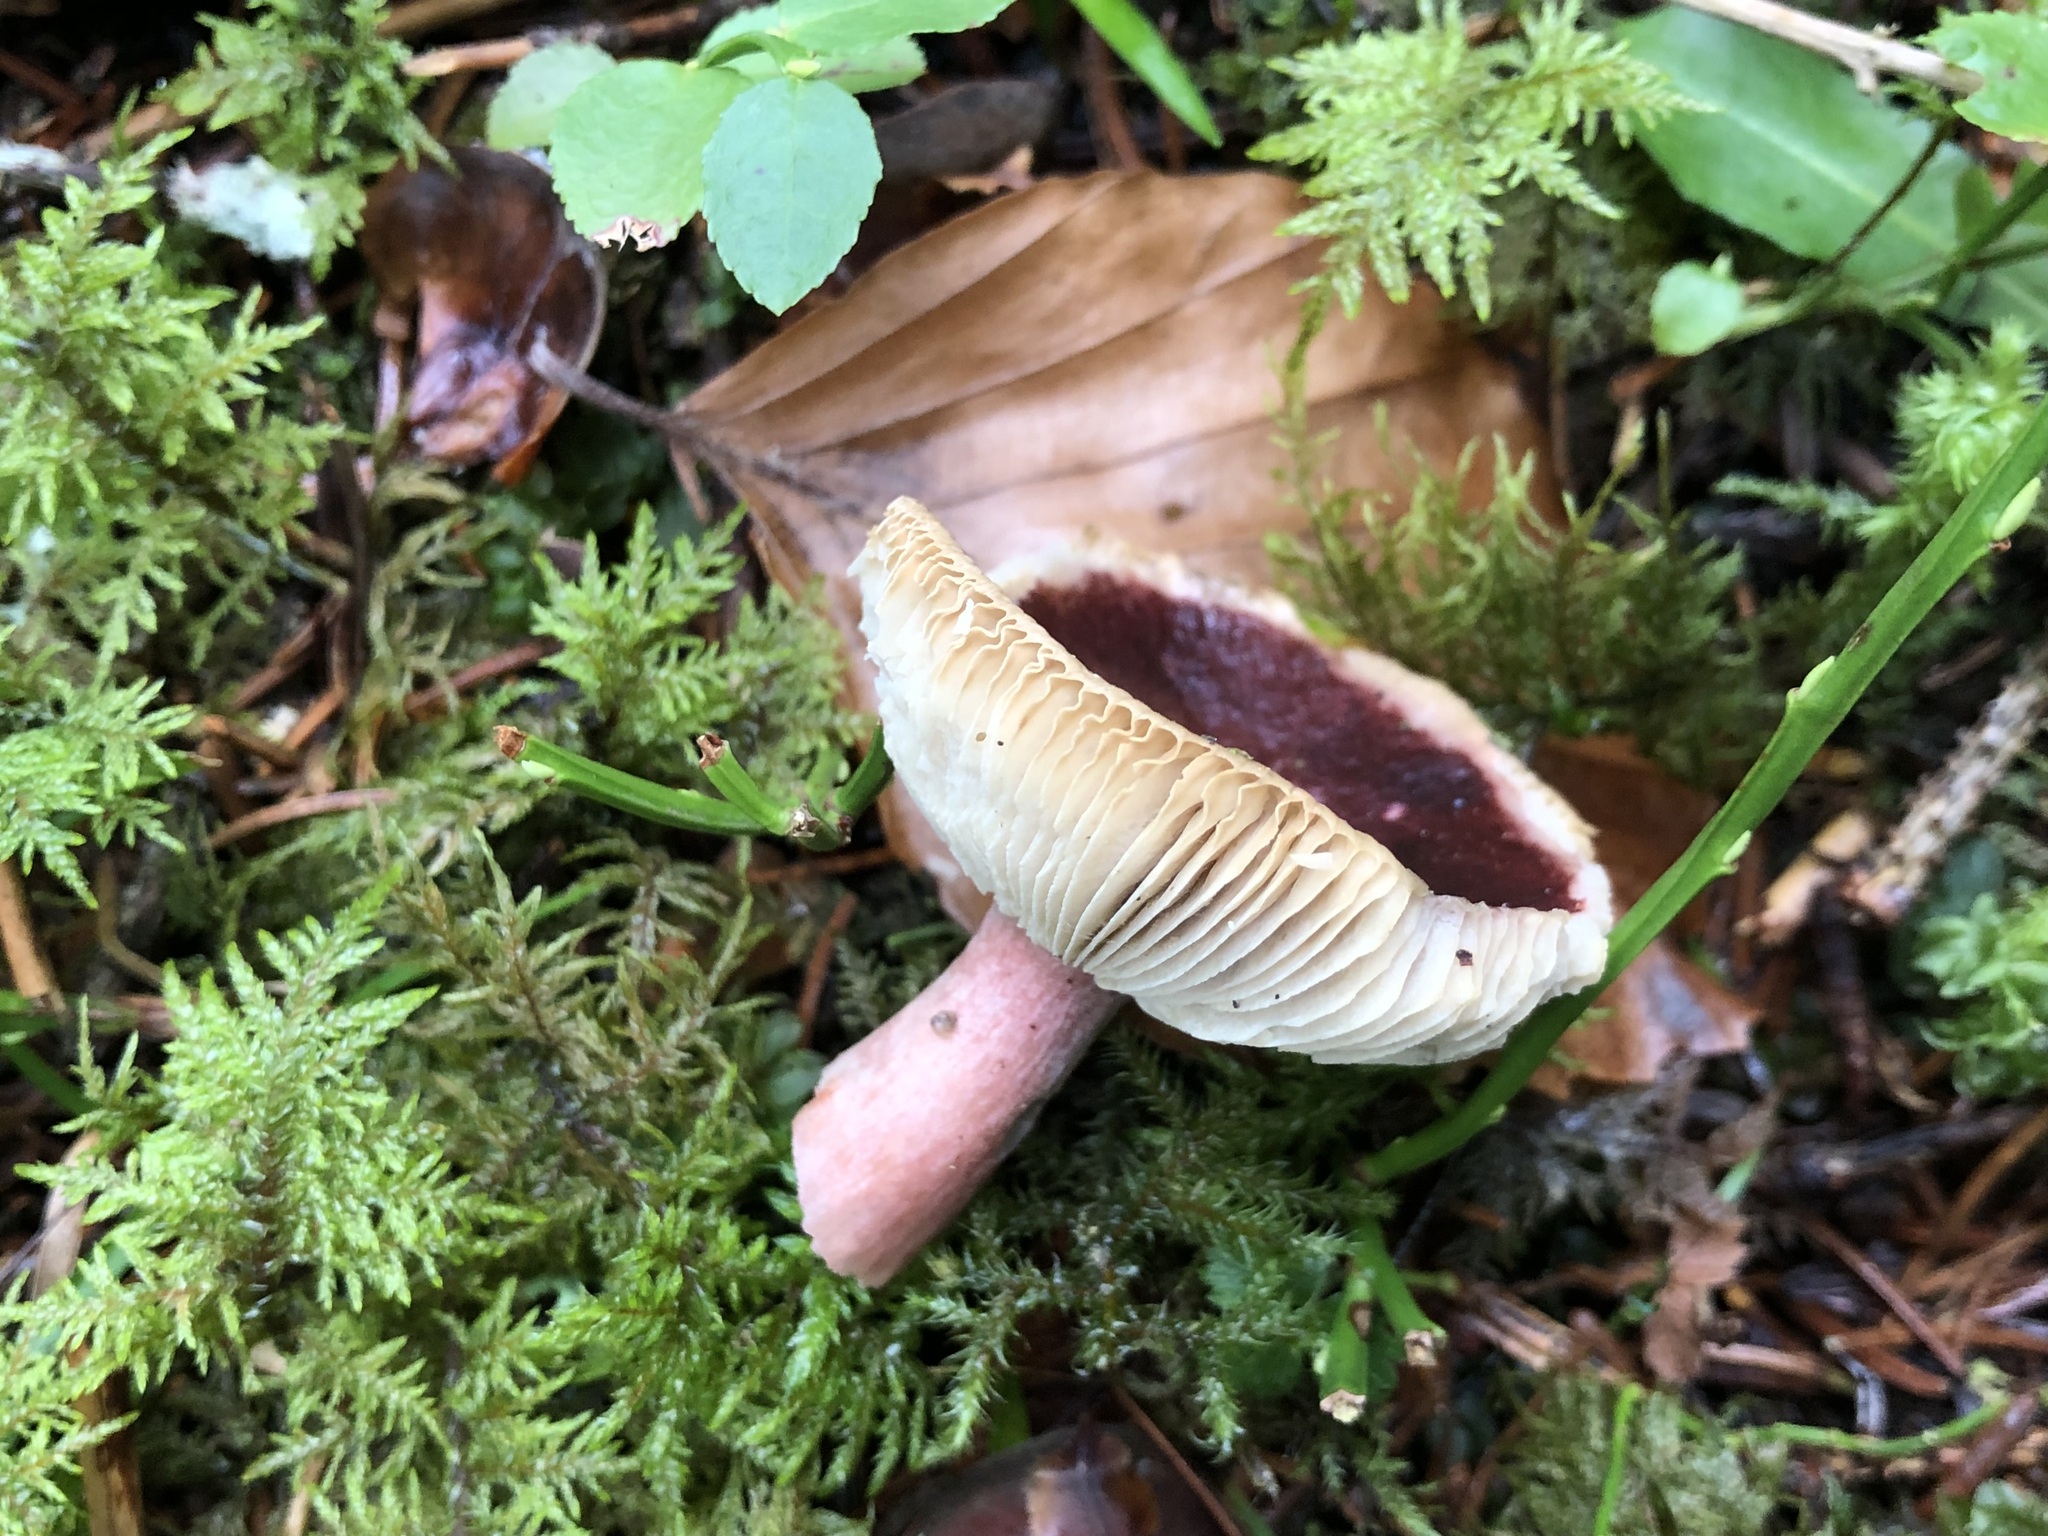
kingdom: Fungi
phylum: Basidiomycota
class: Agaricomycetes
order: Russulales
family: Russulaceae
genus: Russula
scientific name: Russula queletii
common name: Fruity brittlegill
